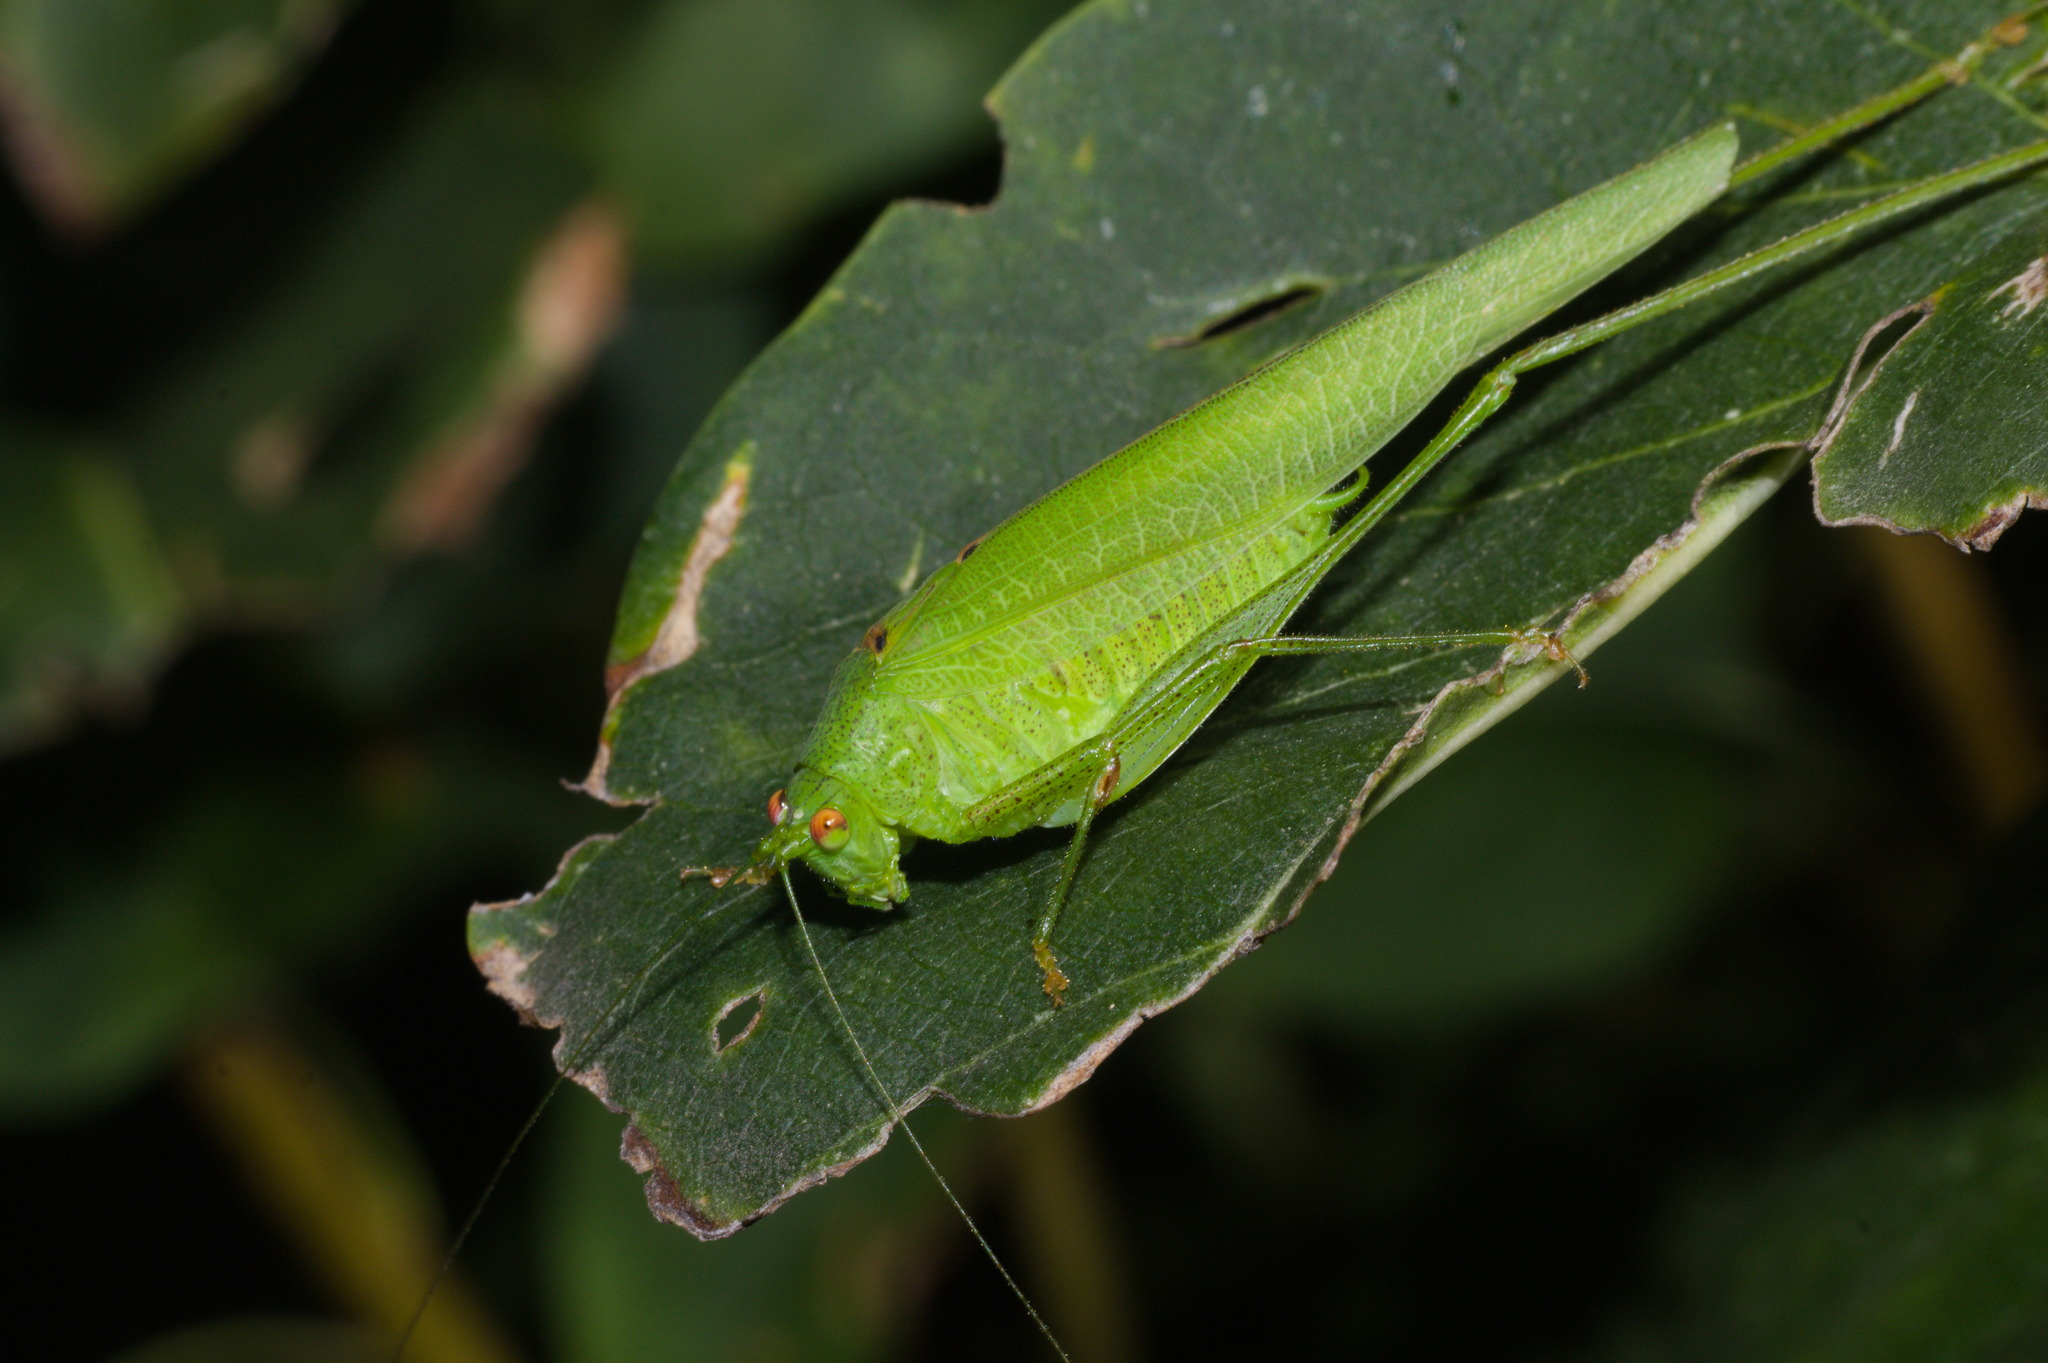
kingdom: Animalia
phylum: Arthropoda
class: Insecta
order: Orthoptera
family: Tettigoniidae
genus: Phaneroptera
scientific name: Phaneroptera nana
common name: Southern sickle bush-cricket
